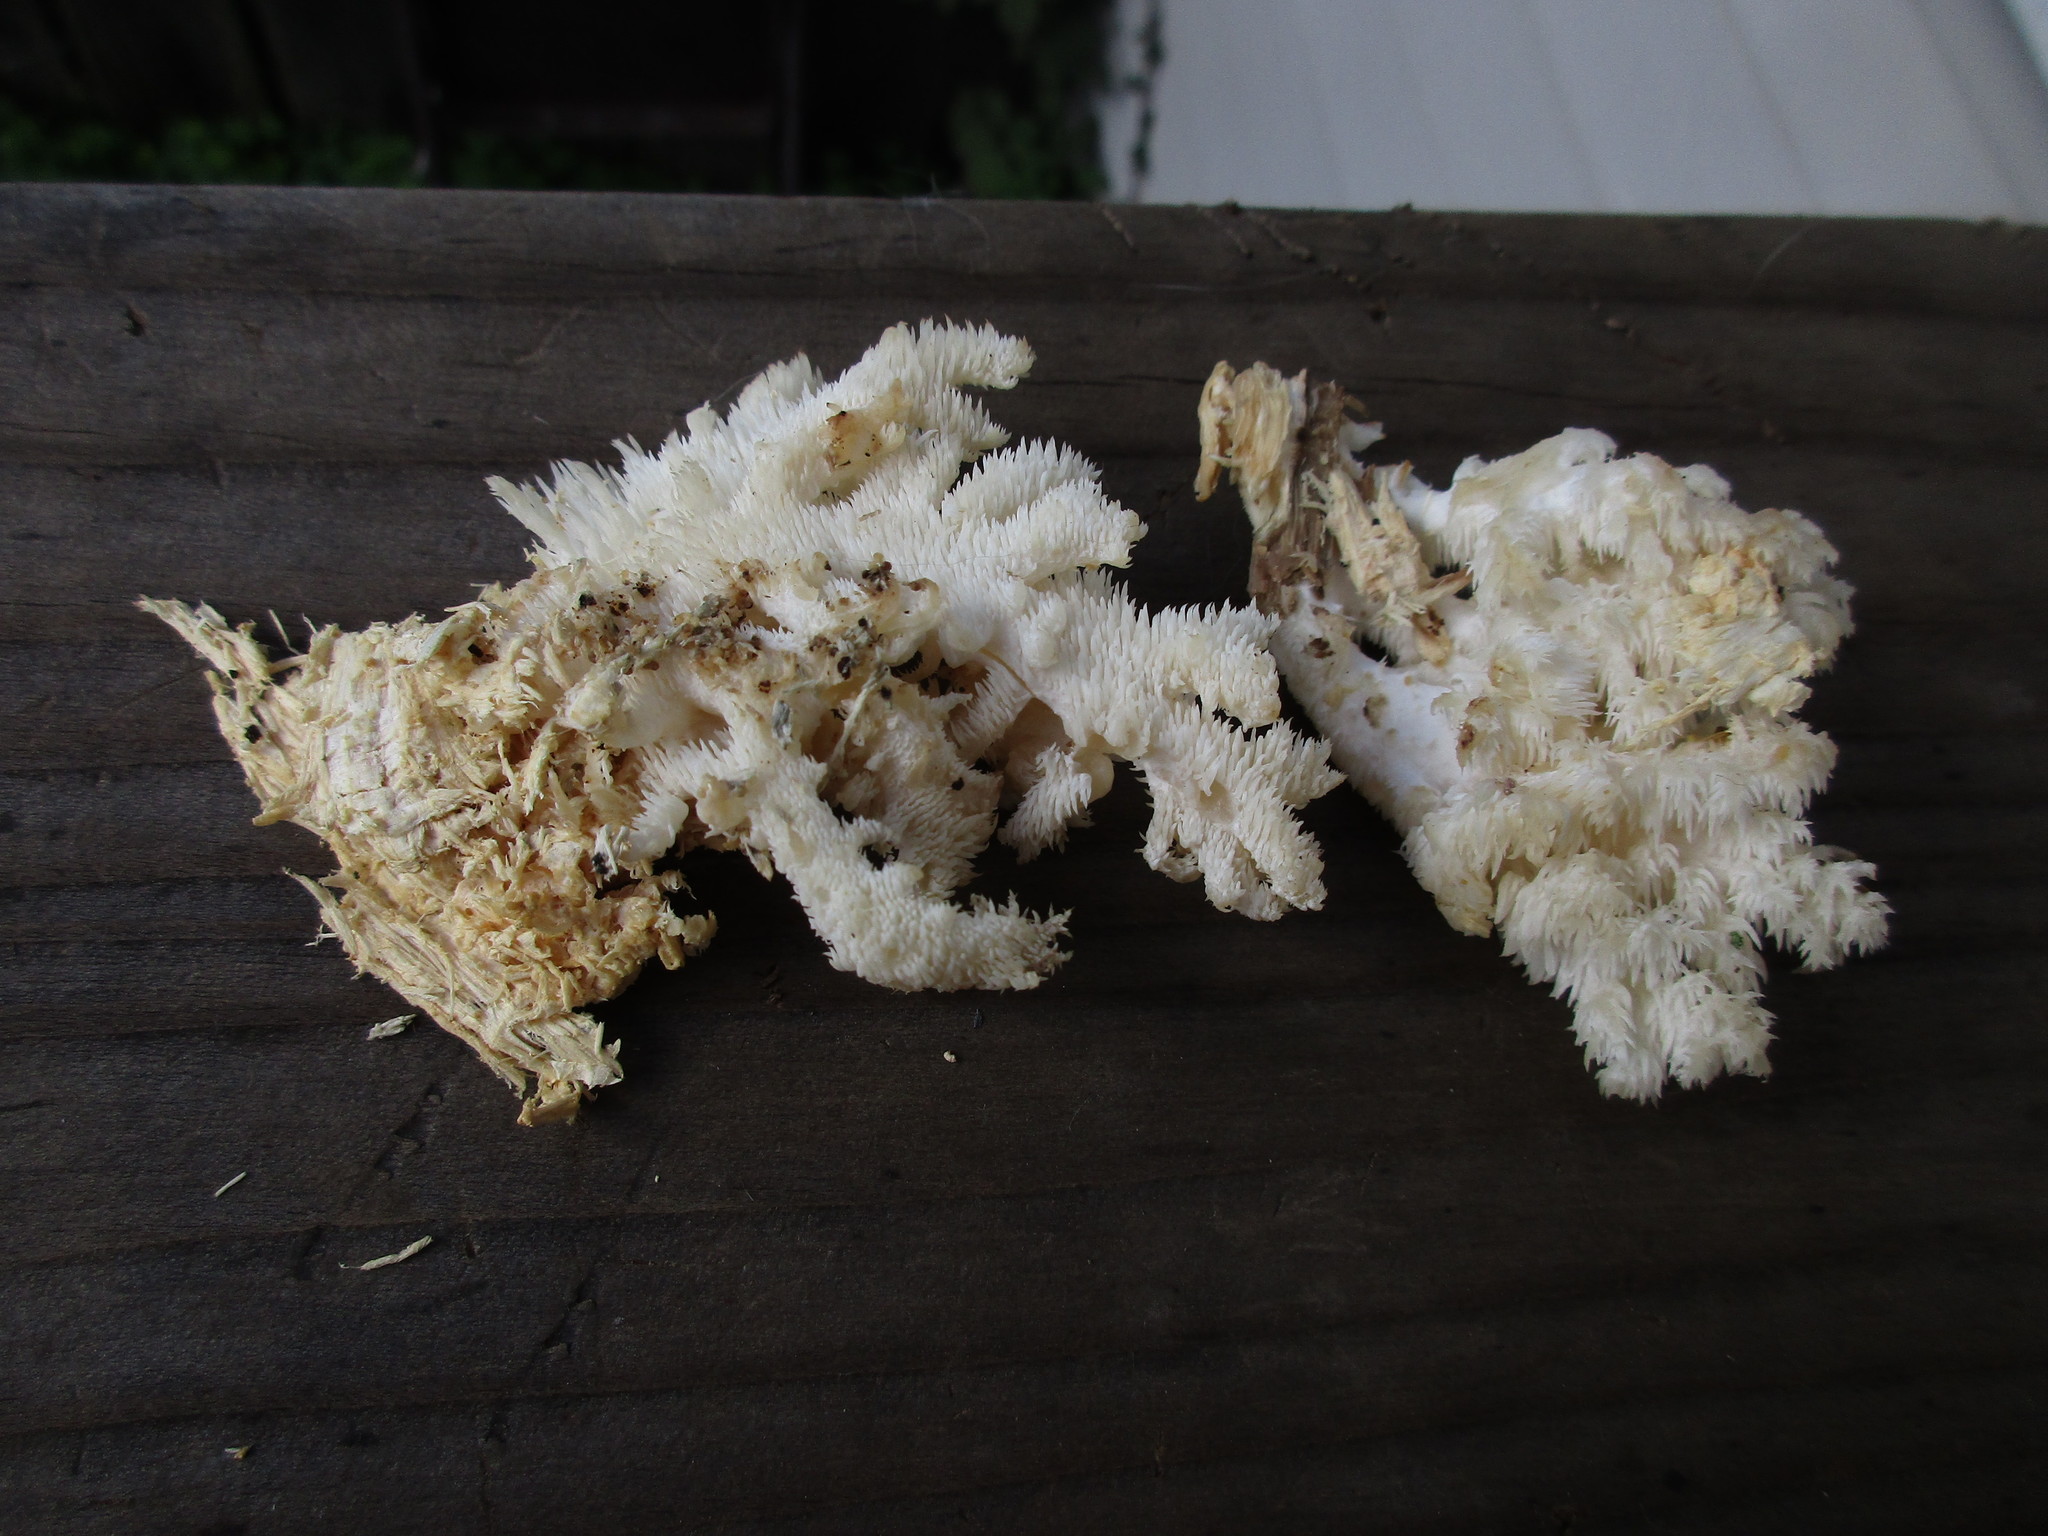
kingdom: Fungi
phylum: Basidiomycota
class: Agaricomycetes
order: Russulales
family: Hericiaceae
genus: Hericium
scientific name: Hericium coralloides
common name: Coral tooth
